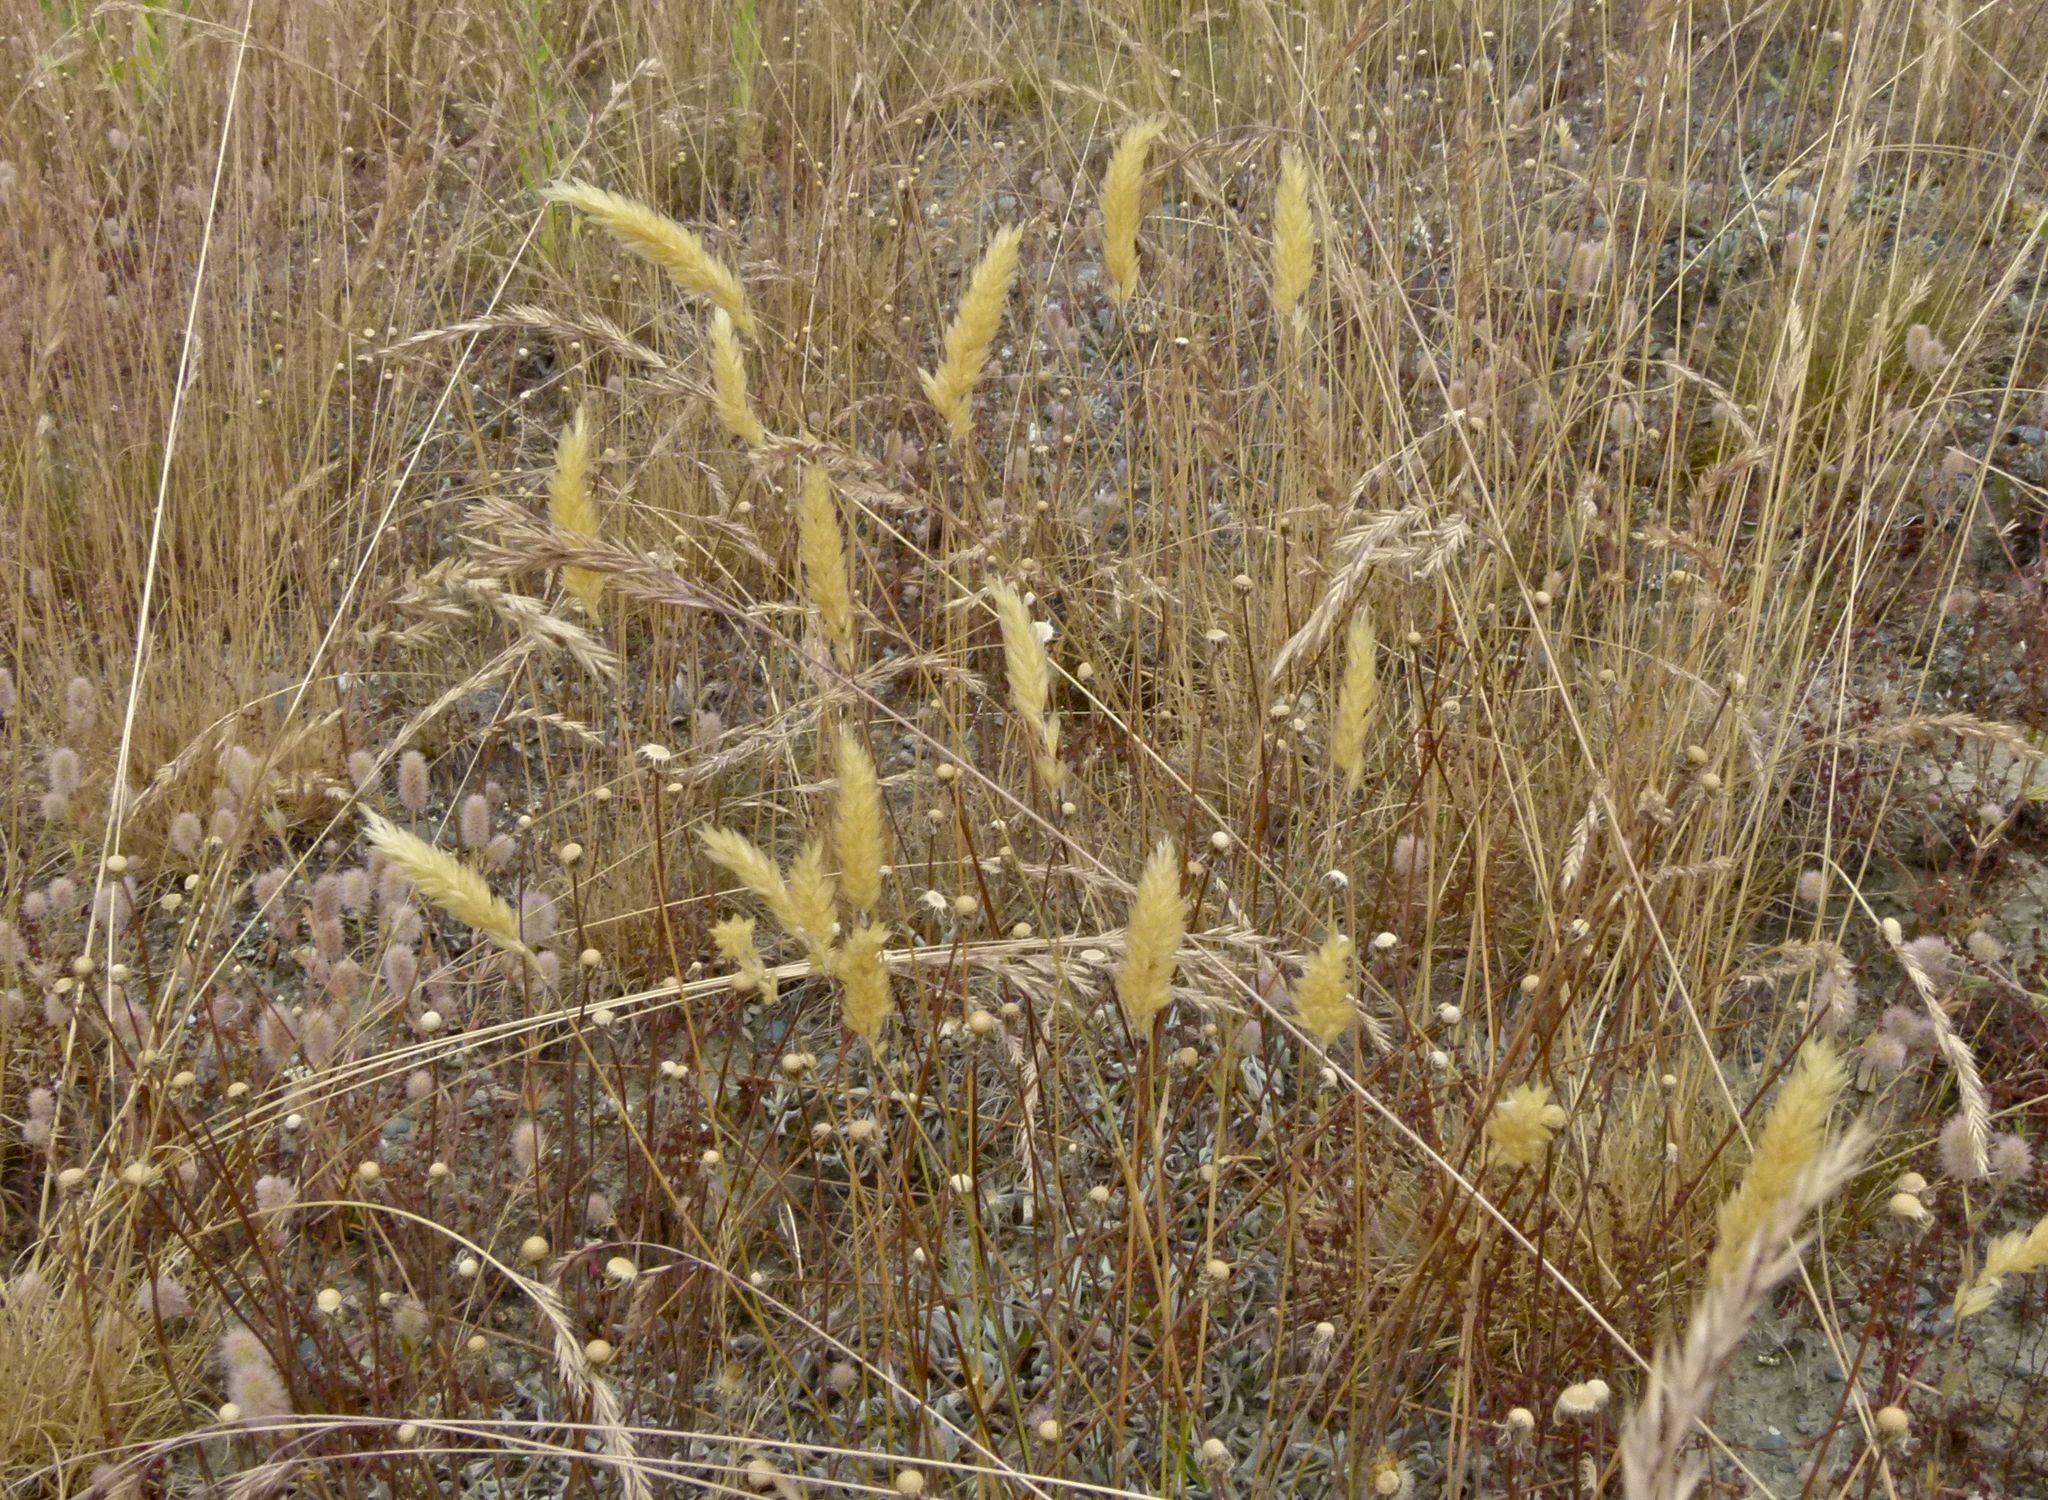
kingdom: Plantae
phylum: Tracheophyta
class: Liliopsida
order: Poales
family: Poaceae
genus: Anthoxanthum
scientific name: Anthoxanthum odoratum
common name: Sweet vernalgrass
